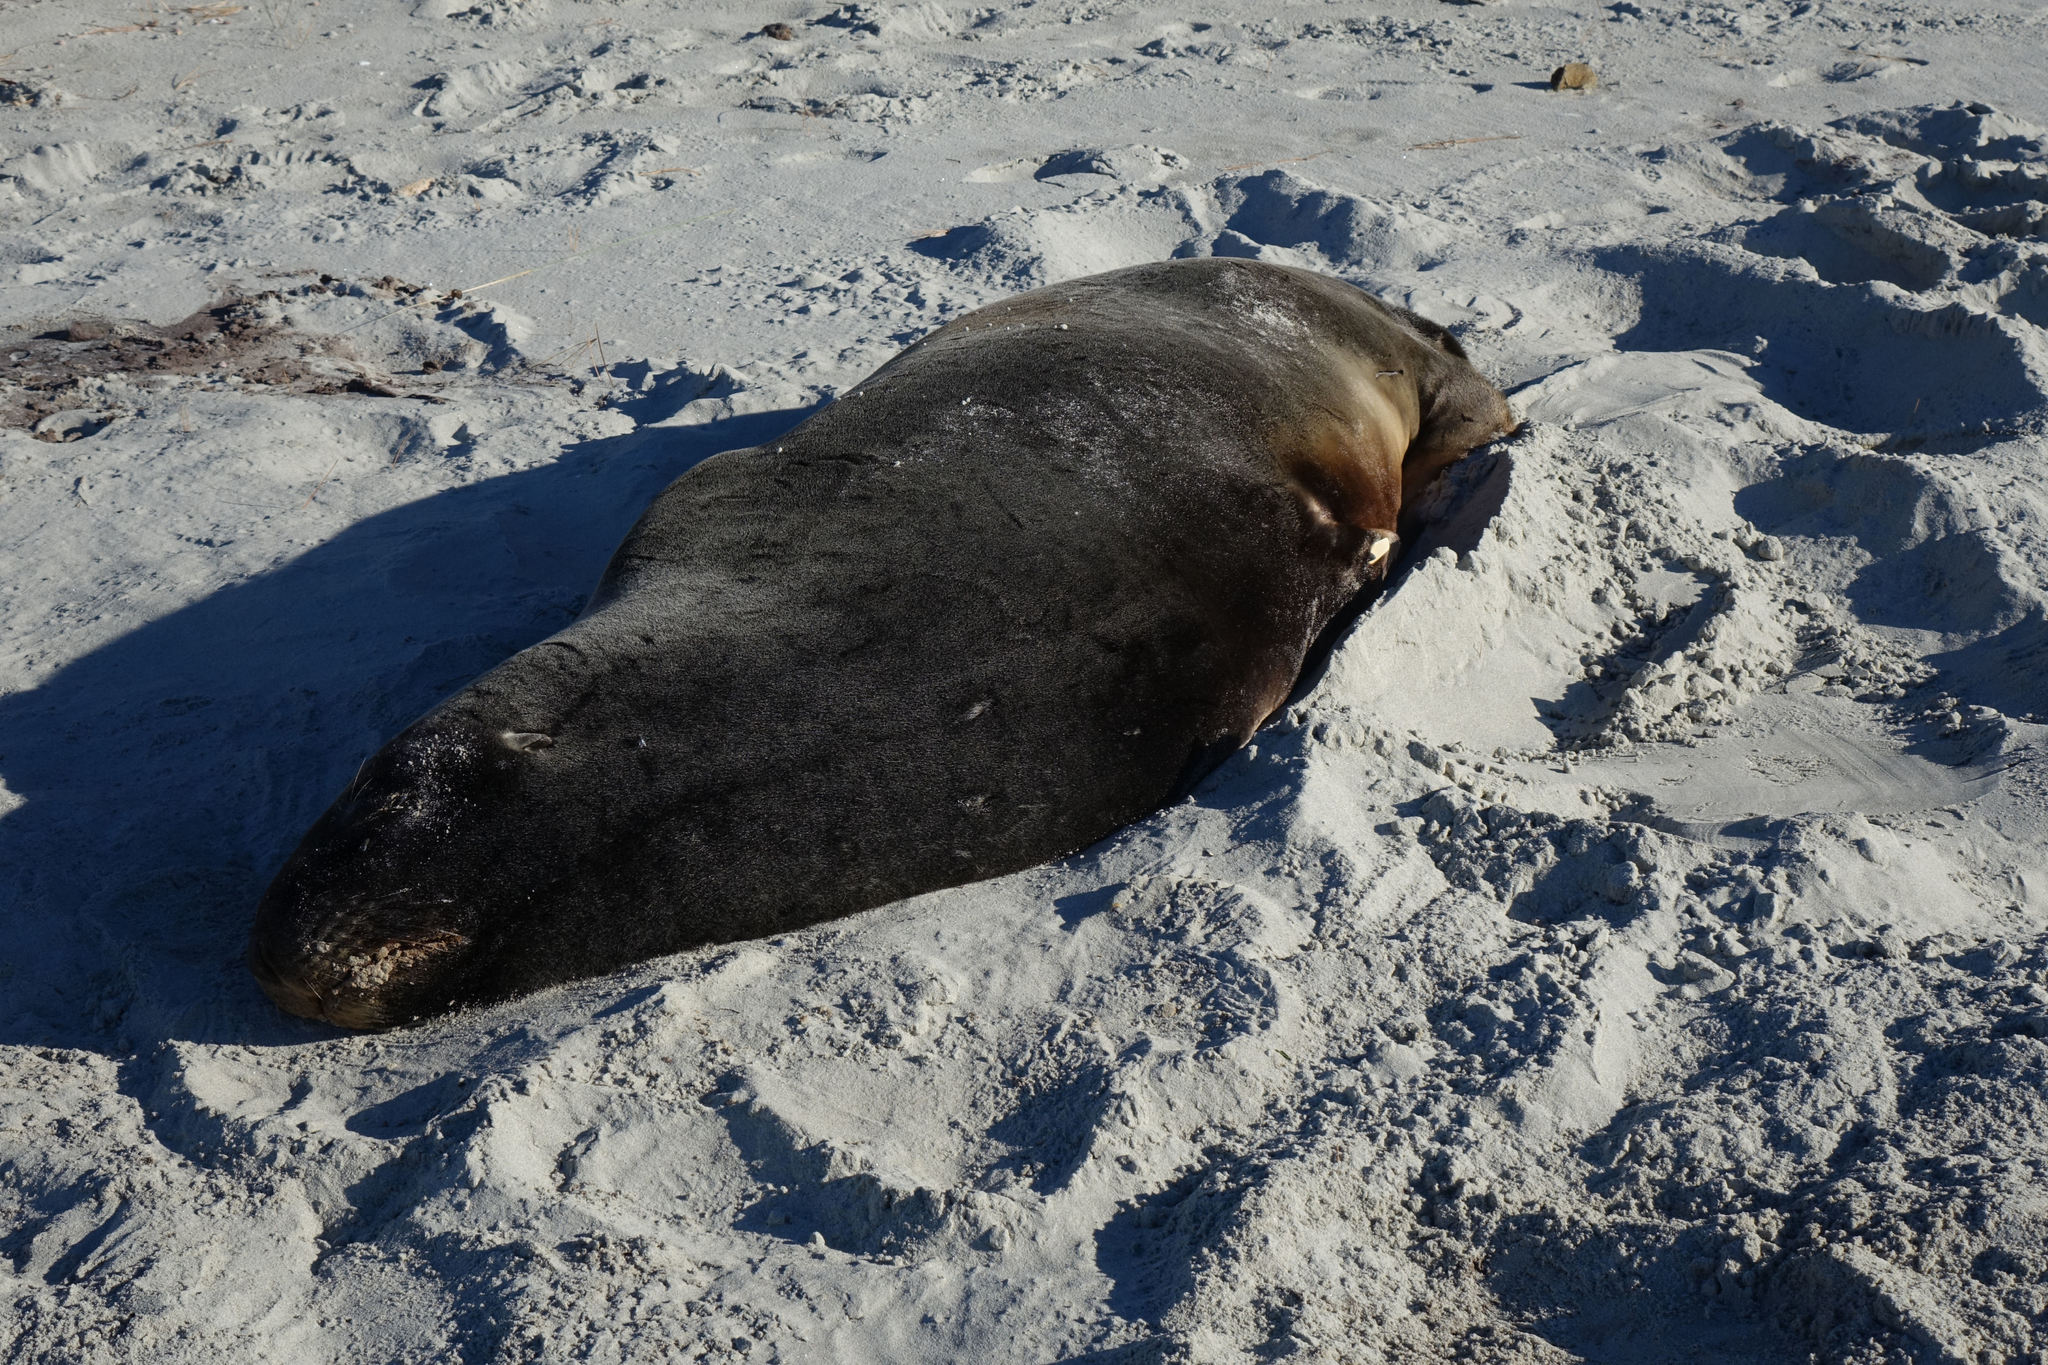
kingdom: Animalia
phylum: Chordata
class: Mammalia
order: Carnivora
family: Otariidae
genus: Phocarctos
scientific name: Phocarctos hookeri
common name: New zealand sea lion
